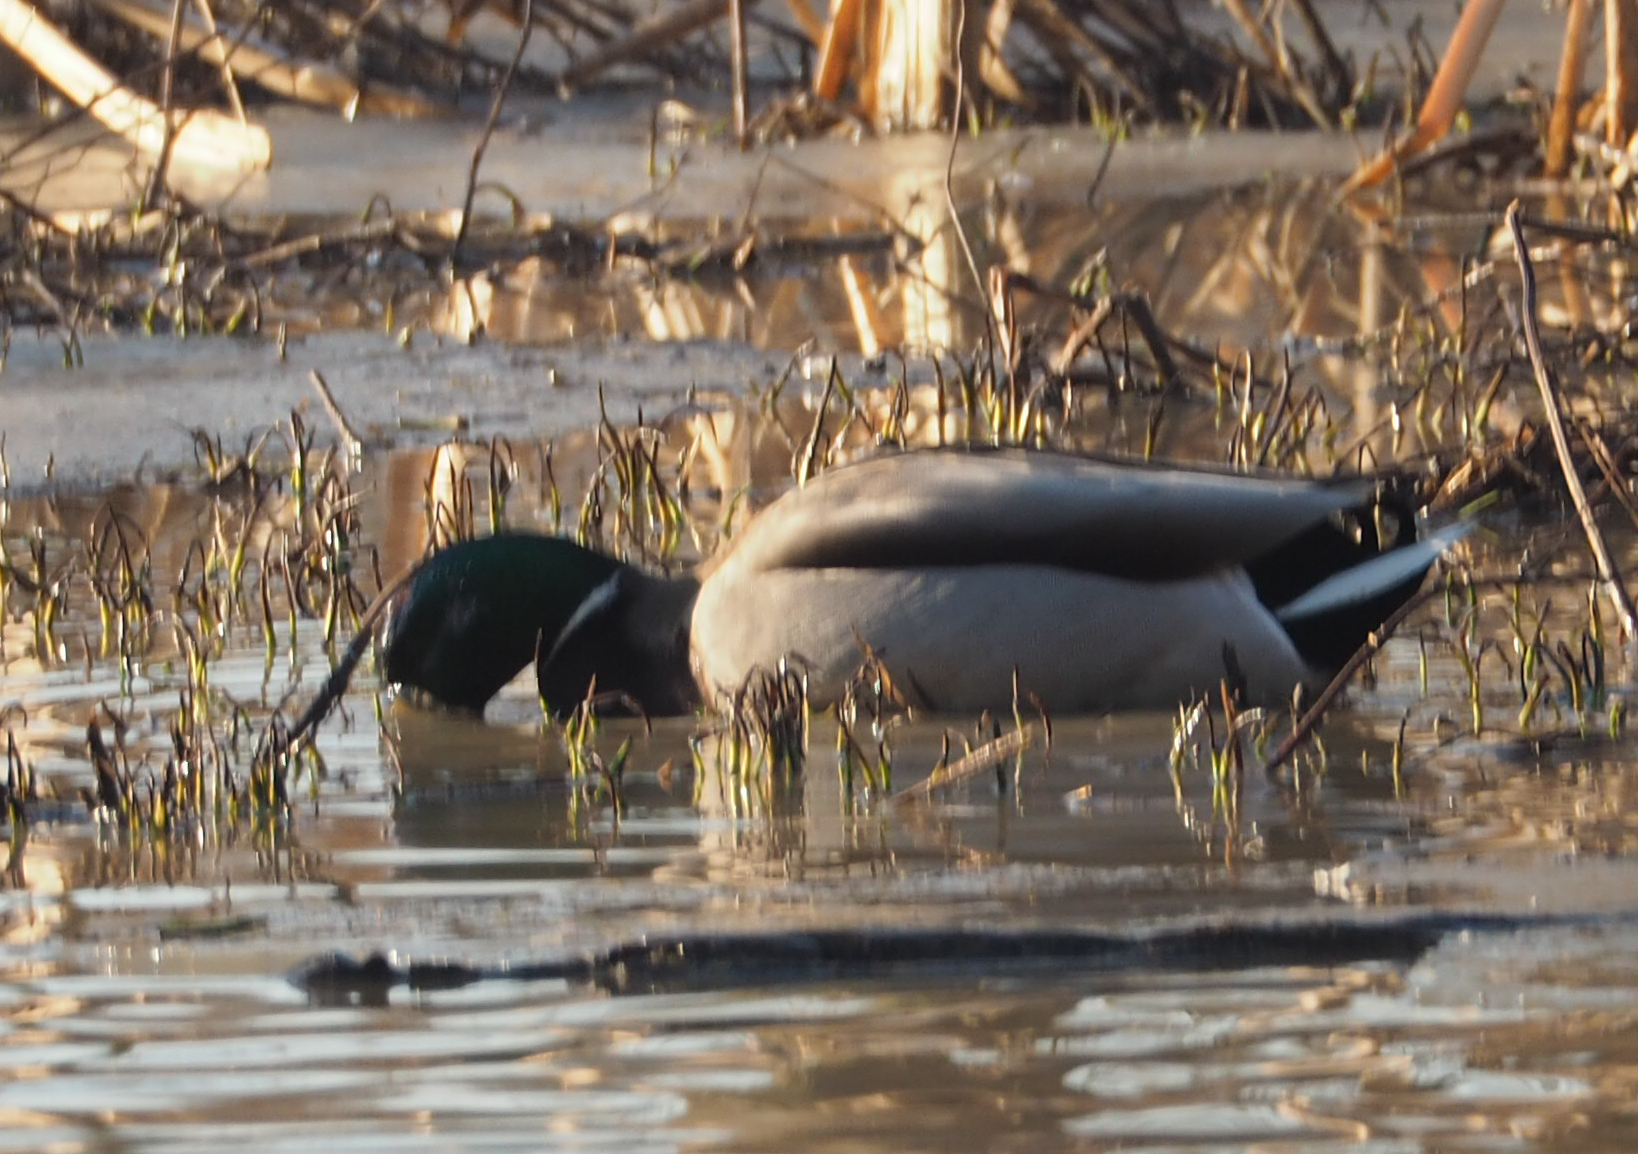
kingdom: Animalia
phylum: Chordata
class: Aves
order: Anseriformes
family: Anatidae
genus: Anas
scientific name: Anas platyrhynchos
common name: Mallard
